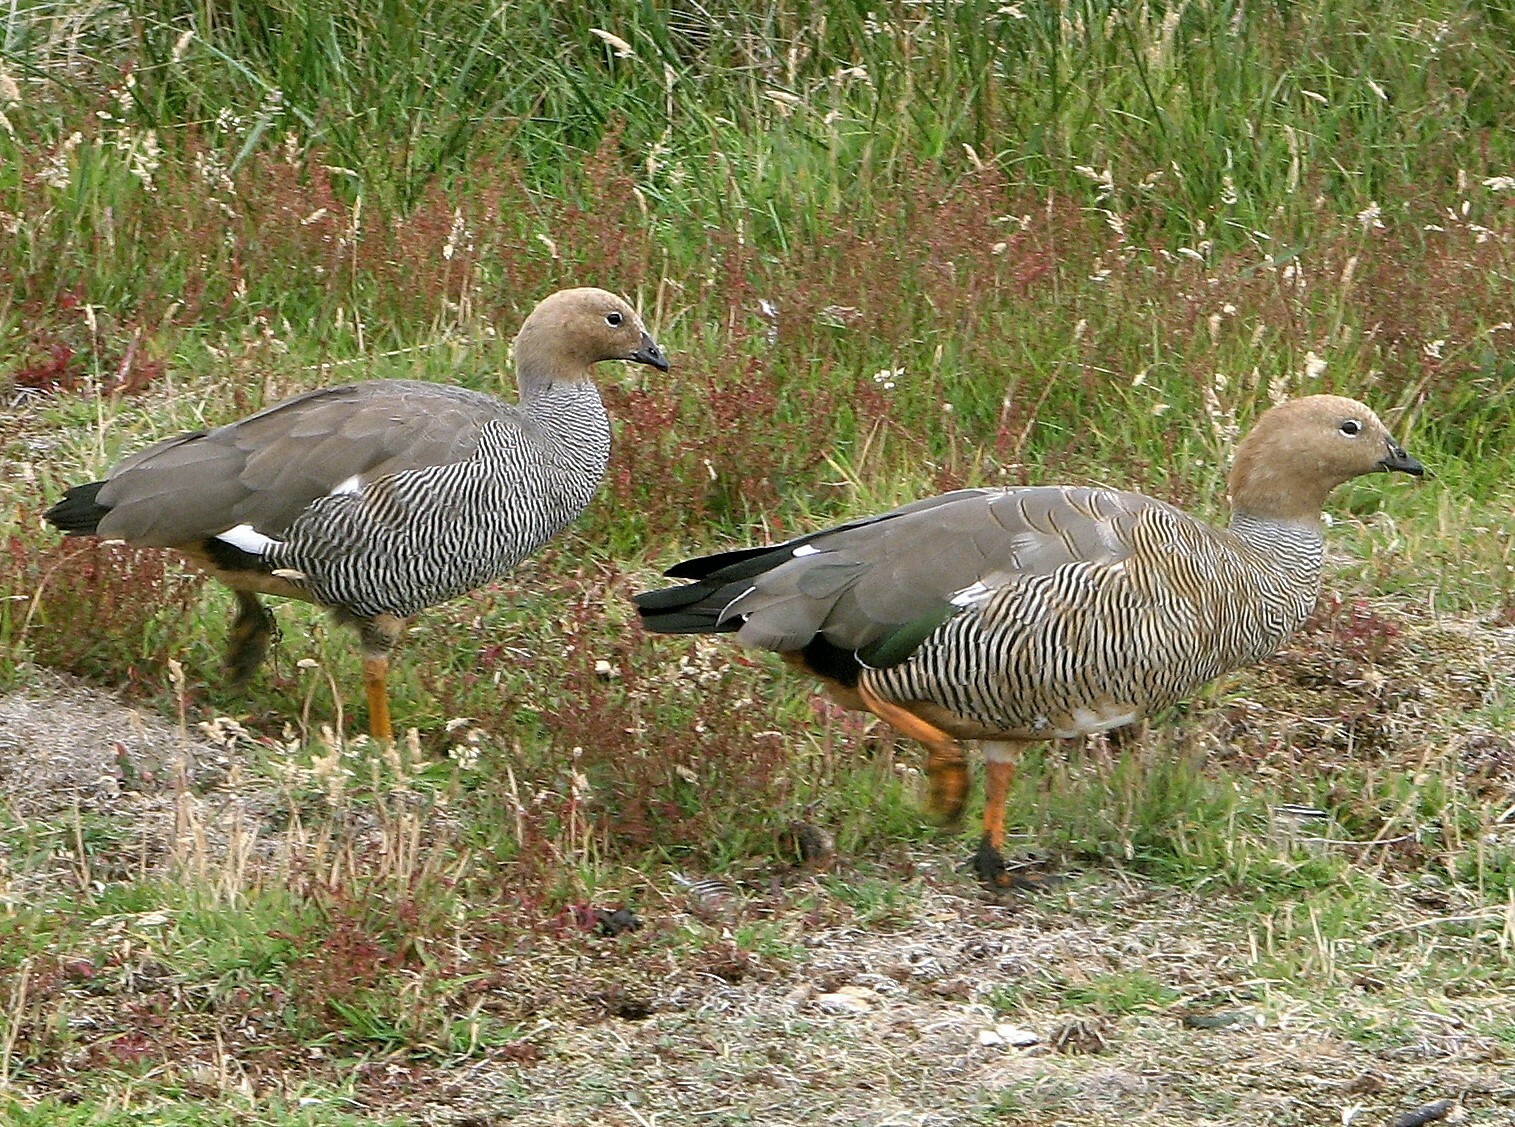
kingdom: Animalia
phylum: Chordata
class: Aves
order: Anseriformes
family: Anatidae
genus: Chloephaga
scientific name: Chloephaga rubidiceps
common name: Ruddy-headed goose
